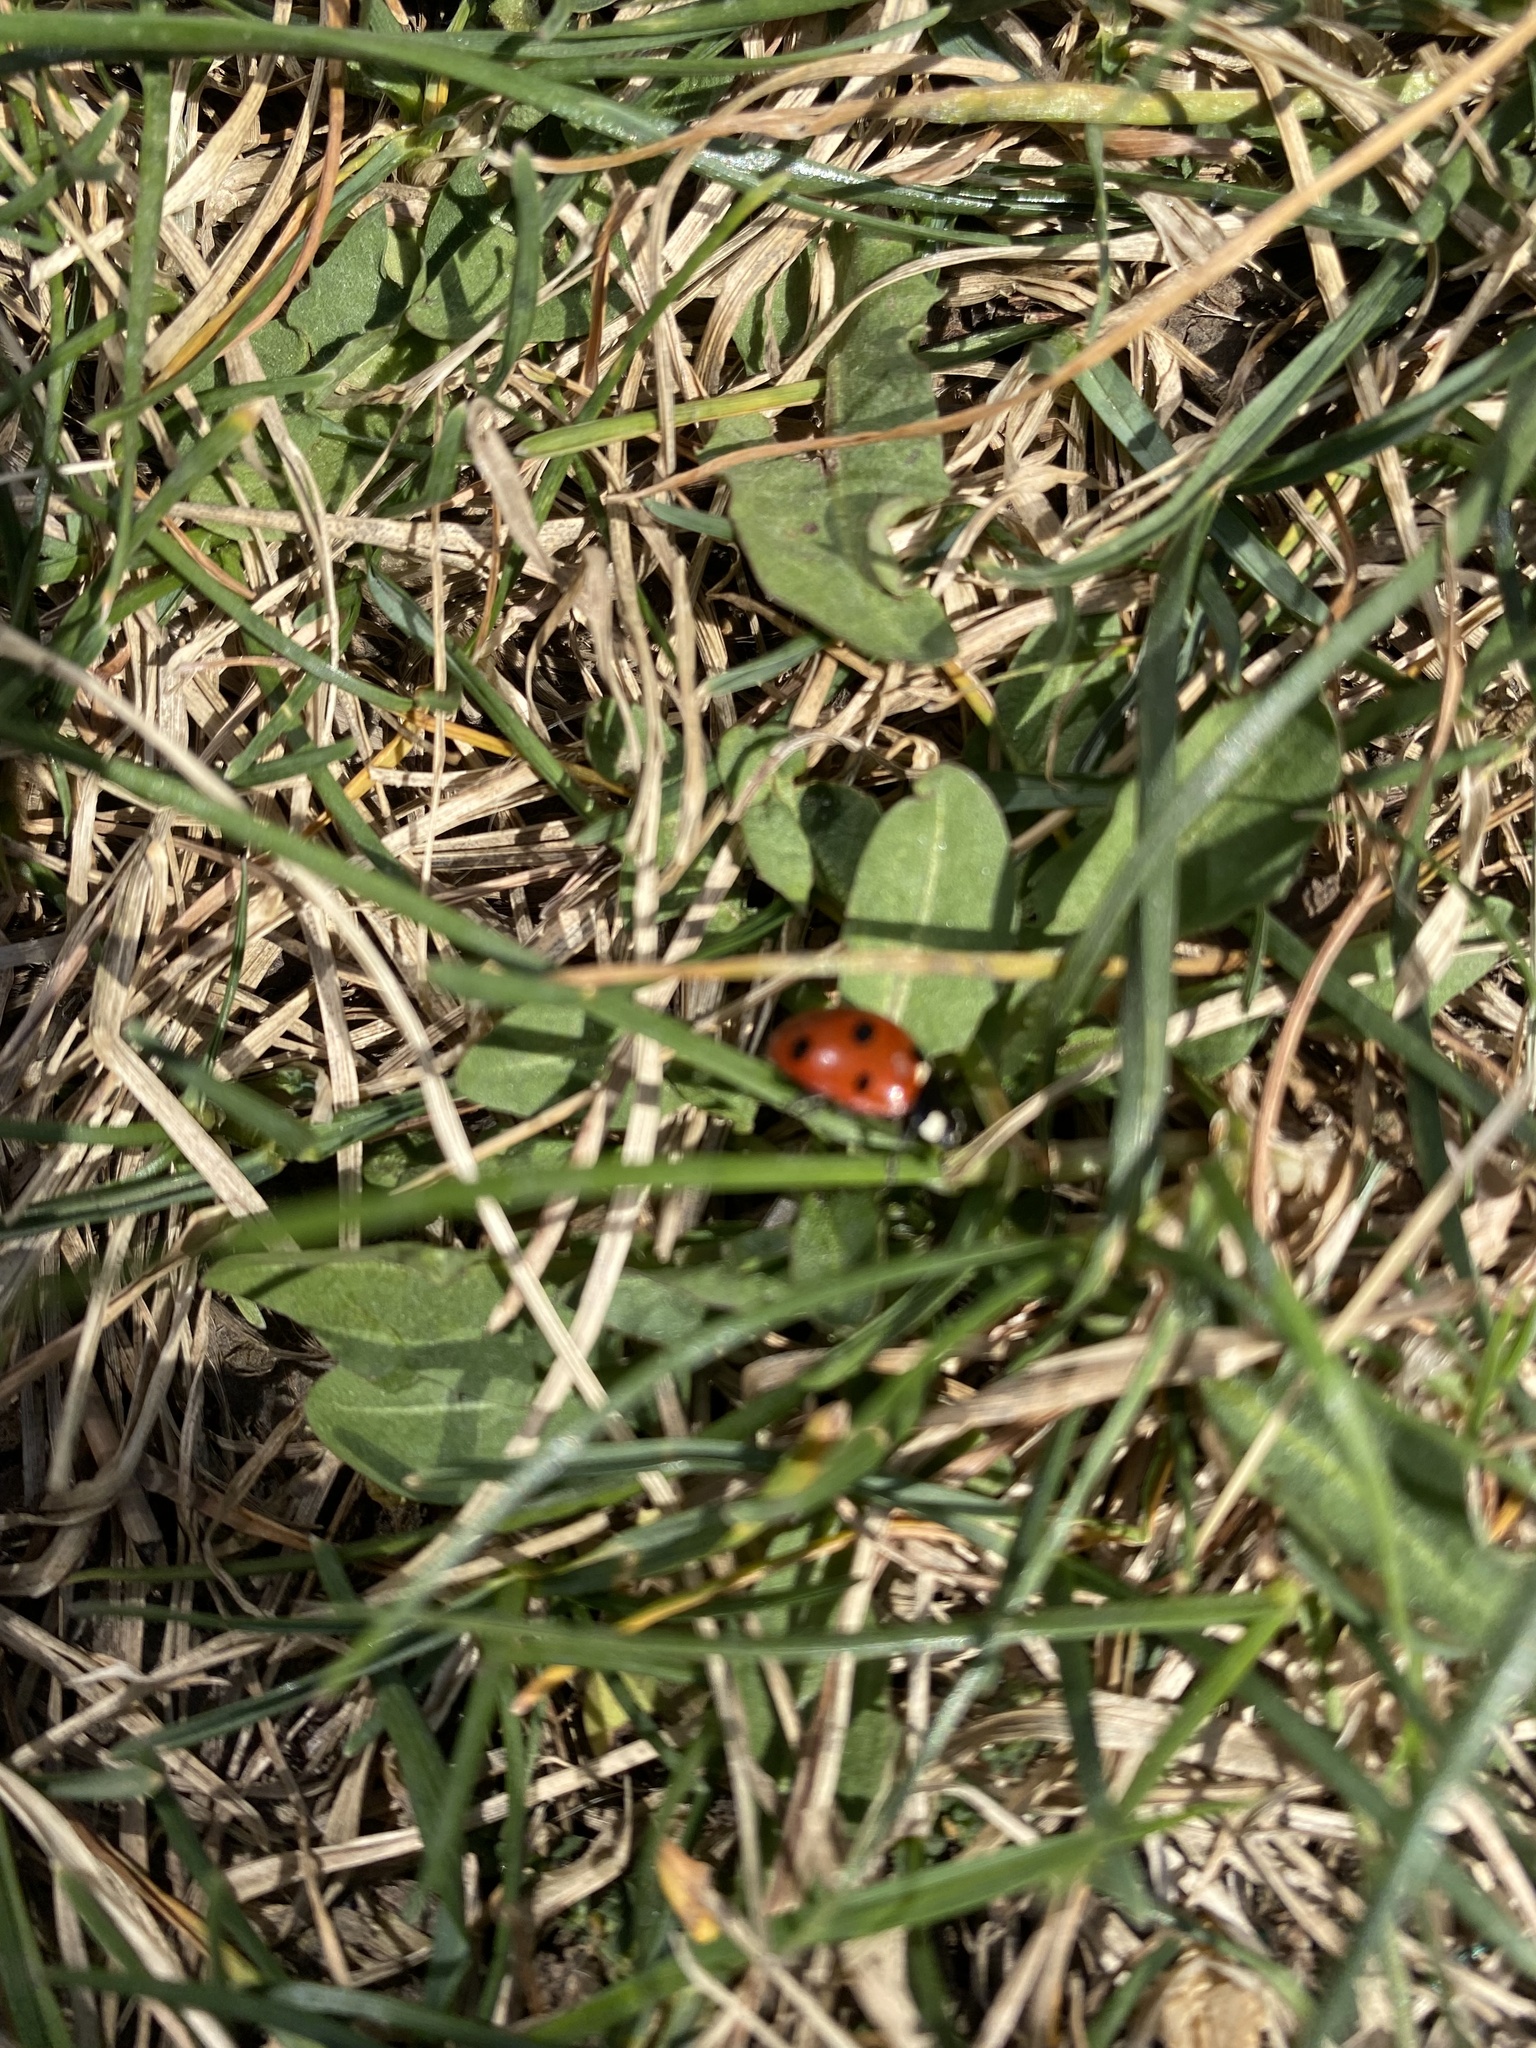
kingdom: Animalia
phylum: Arthropoda
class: Insecta
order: Coleoptera
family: Coccinellidae
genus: Coccinella
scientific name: Coccinella septempunctata
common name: Sevenspotted lady beetle
